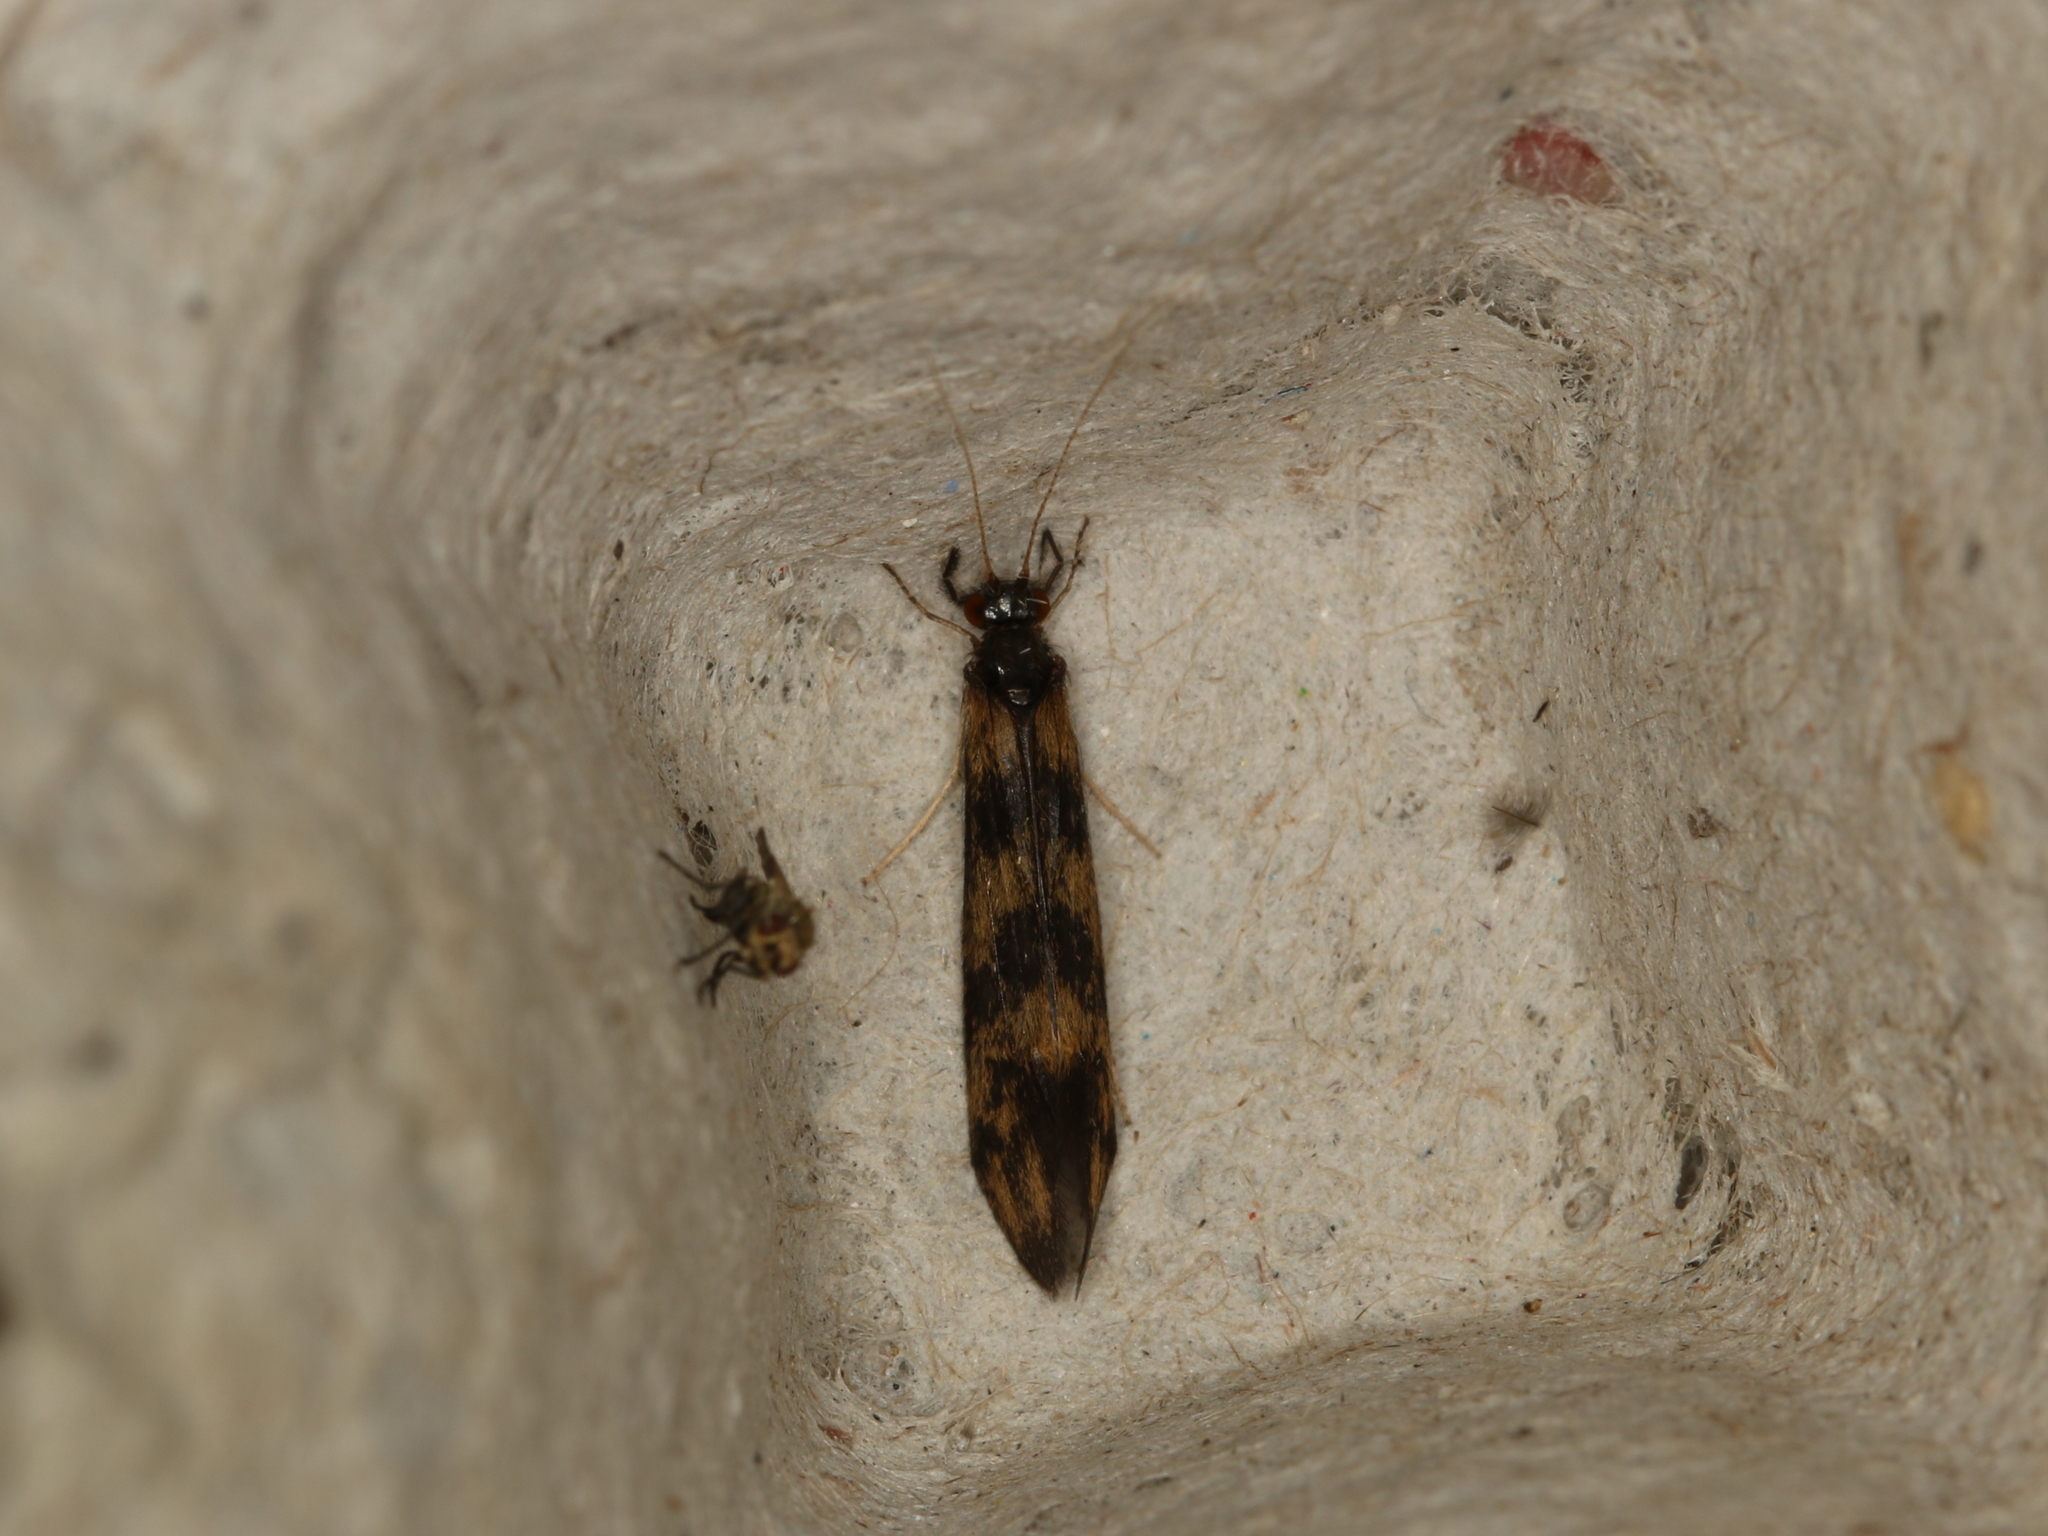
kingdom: Animalia
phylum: Arthropoda
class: Insecta
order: Trichoptera
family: Leptoceridae
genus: Mystacides
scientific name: Mystacides longicornis
